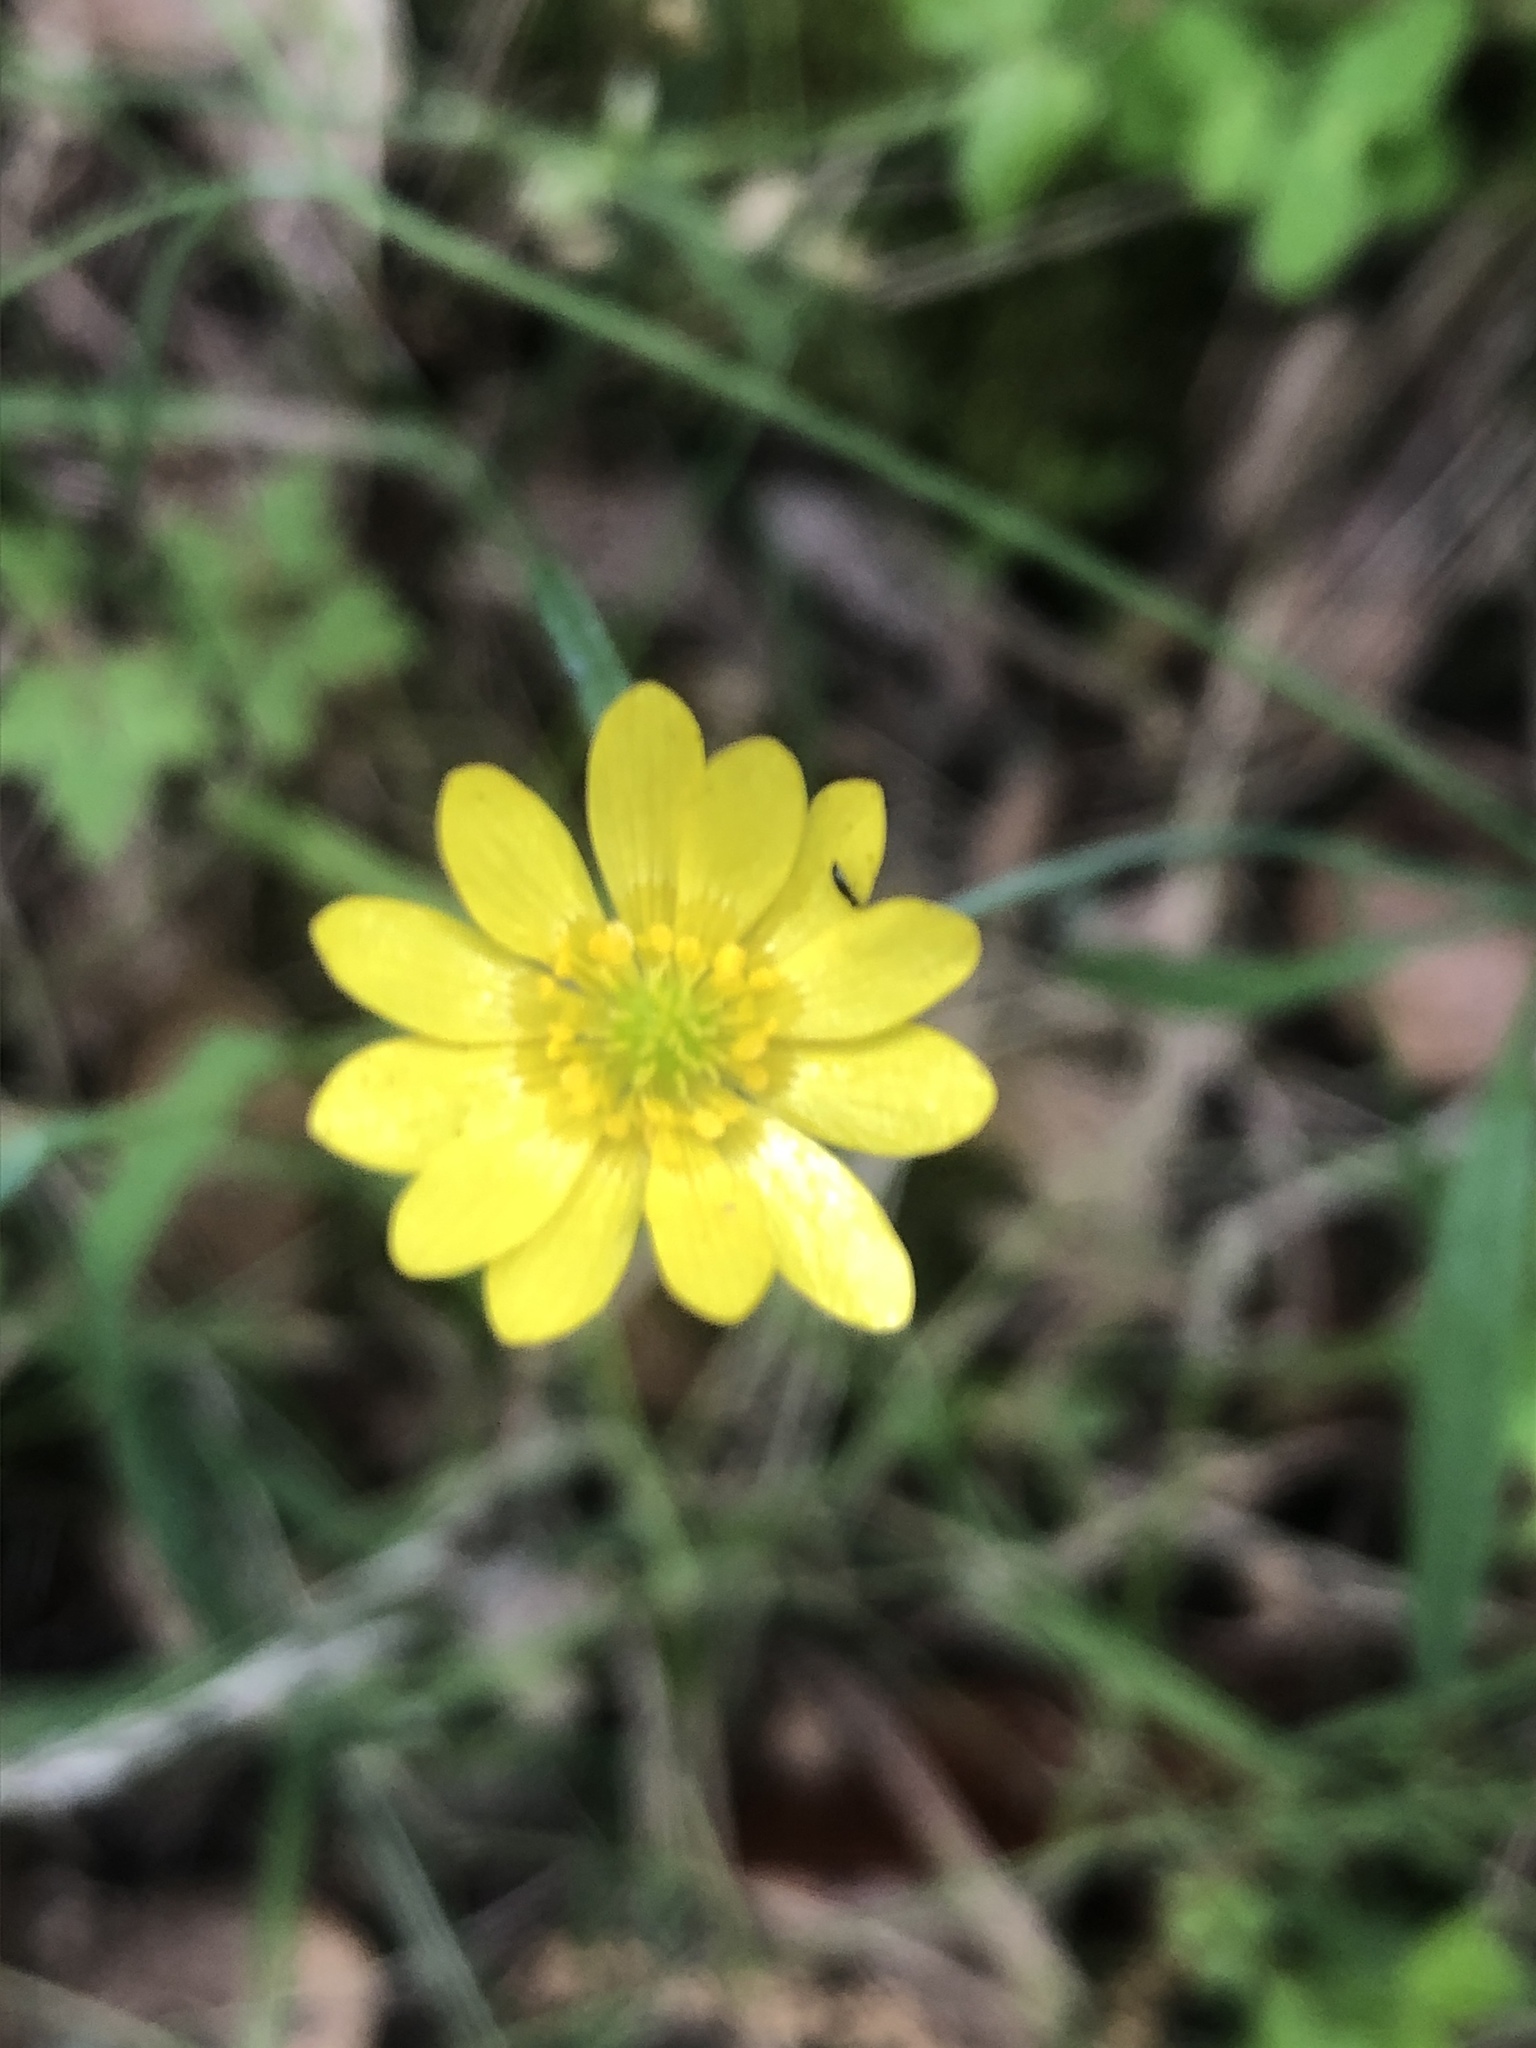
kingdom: Plantae
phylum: Tracheophyta
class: Magnoliopsida
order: Ranunculales
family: Ranunculaceae
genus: Ranunculus
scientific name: Ranunculus californicus
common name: California buttercup
